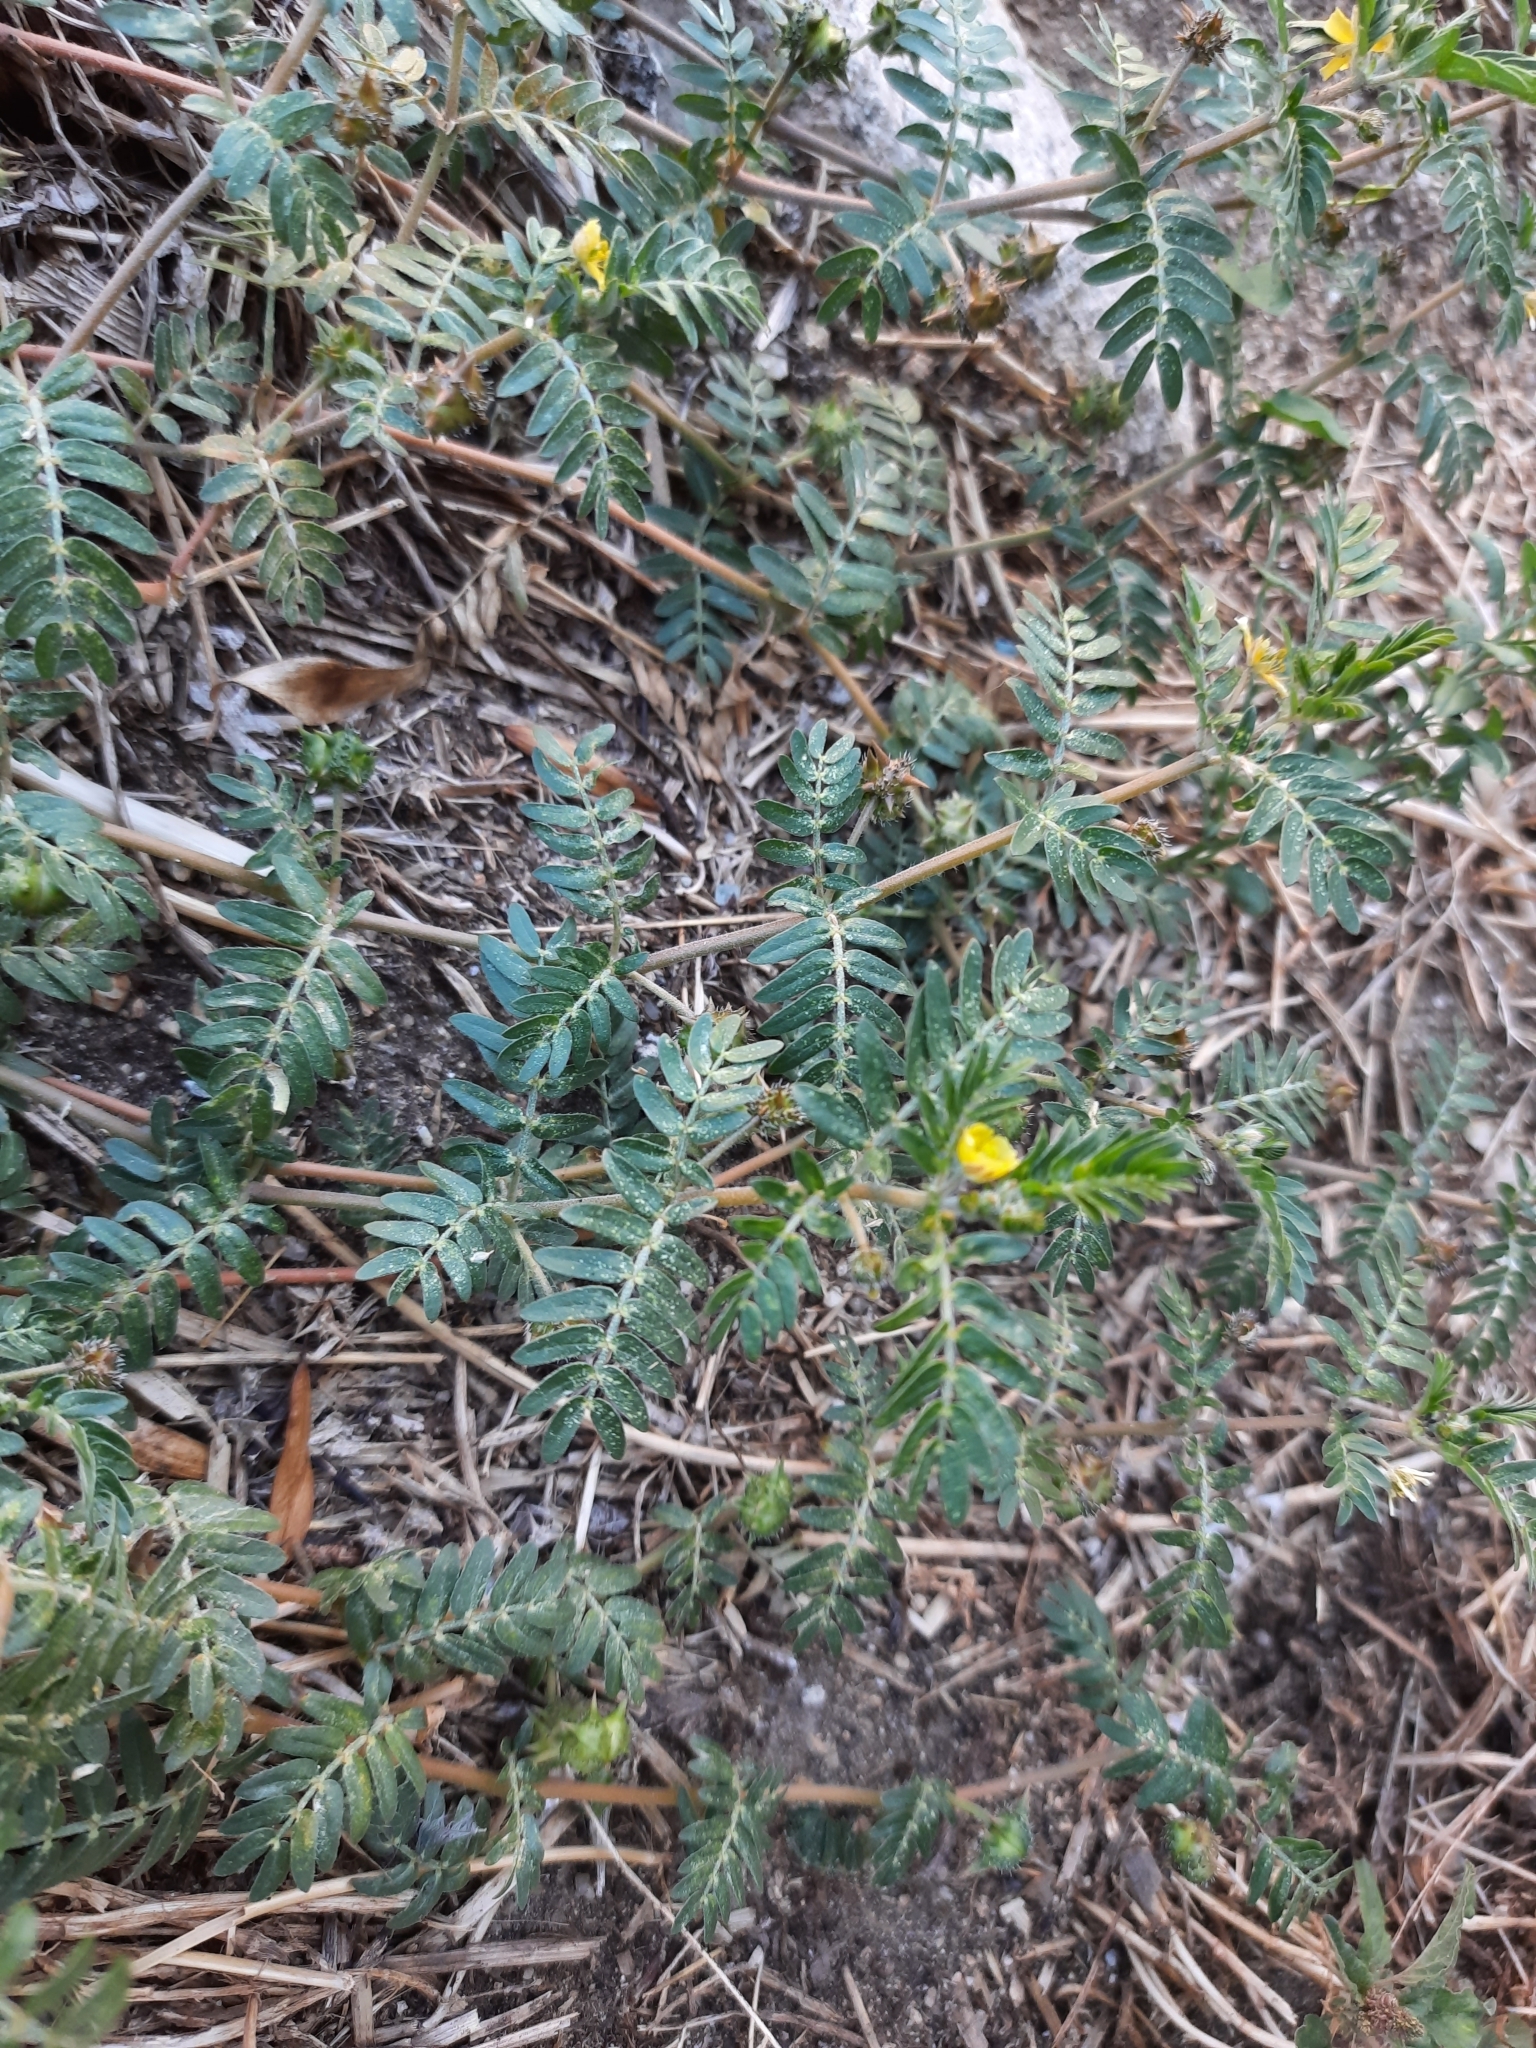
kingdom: Plantae
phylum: Tracheophyta
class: Magnoliopsida
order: Zygophyllales
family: Zygophyllaceae
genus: Tribulus
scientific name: Tribulus terrestris
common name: Puncturevine
